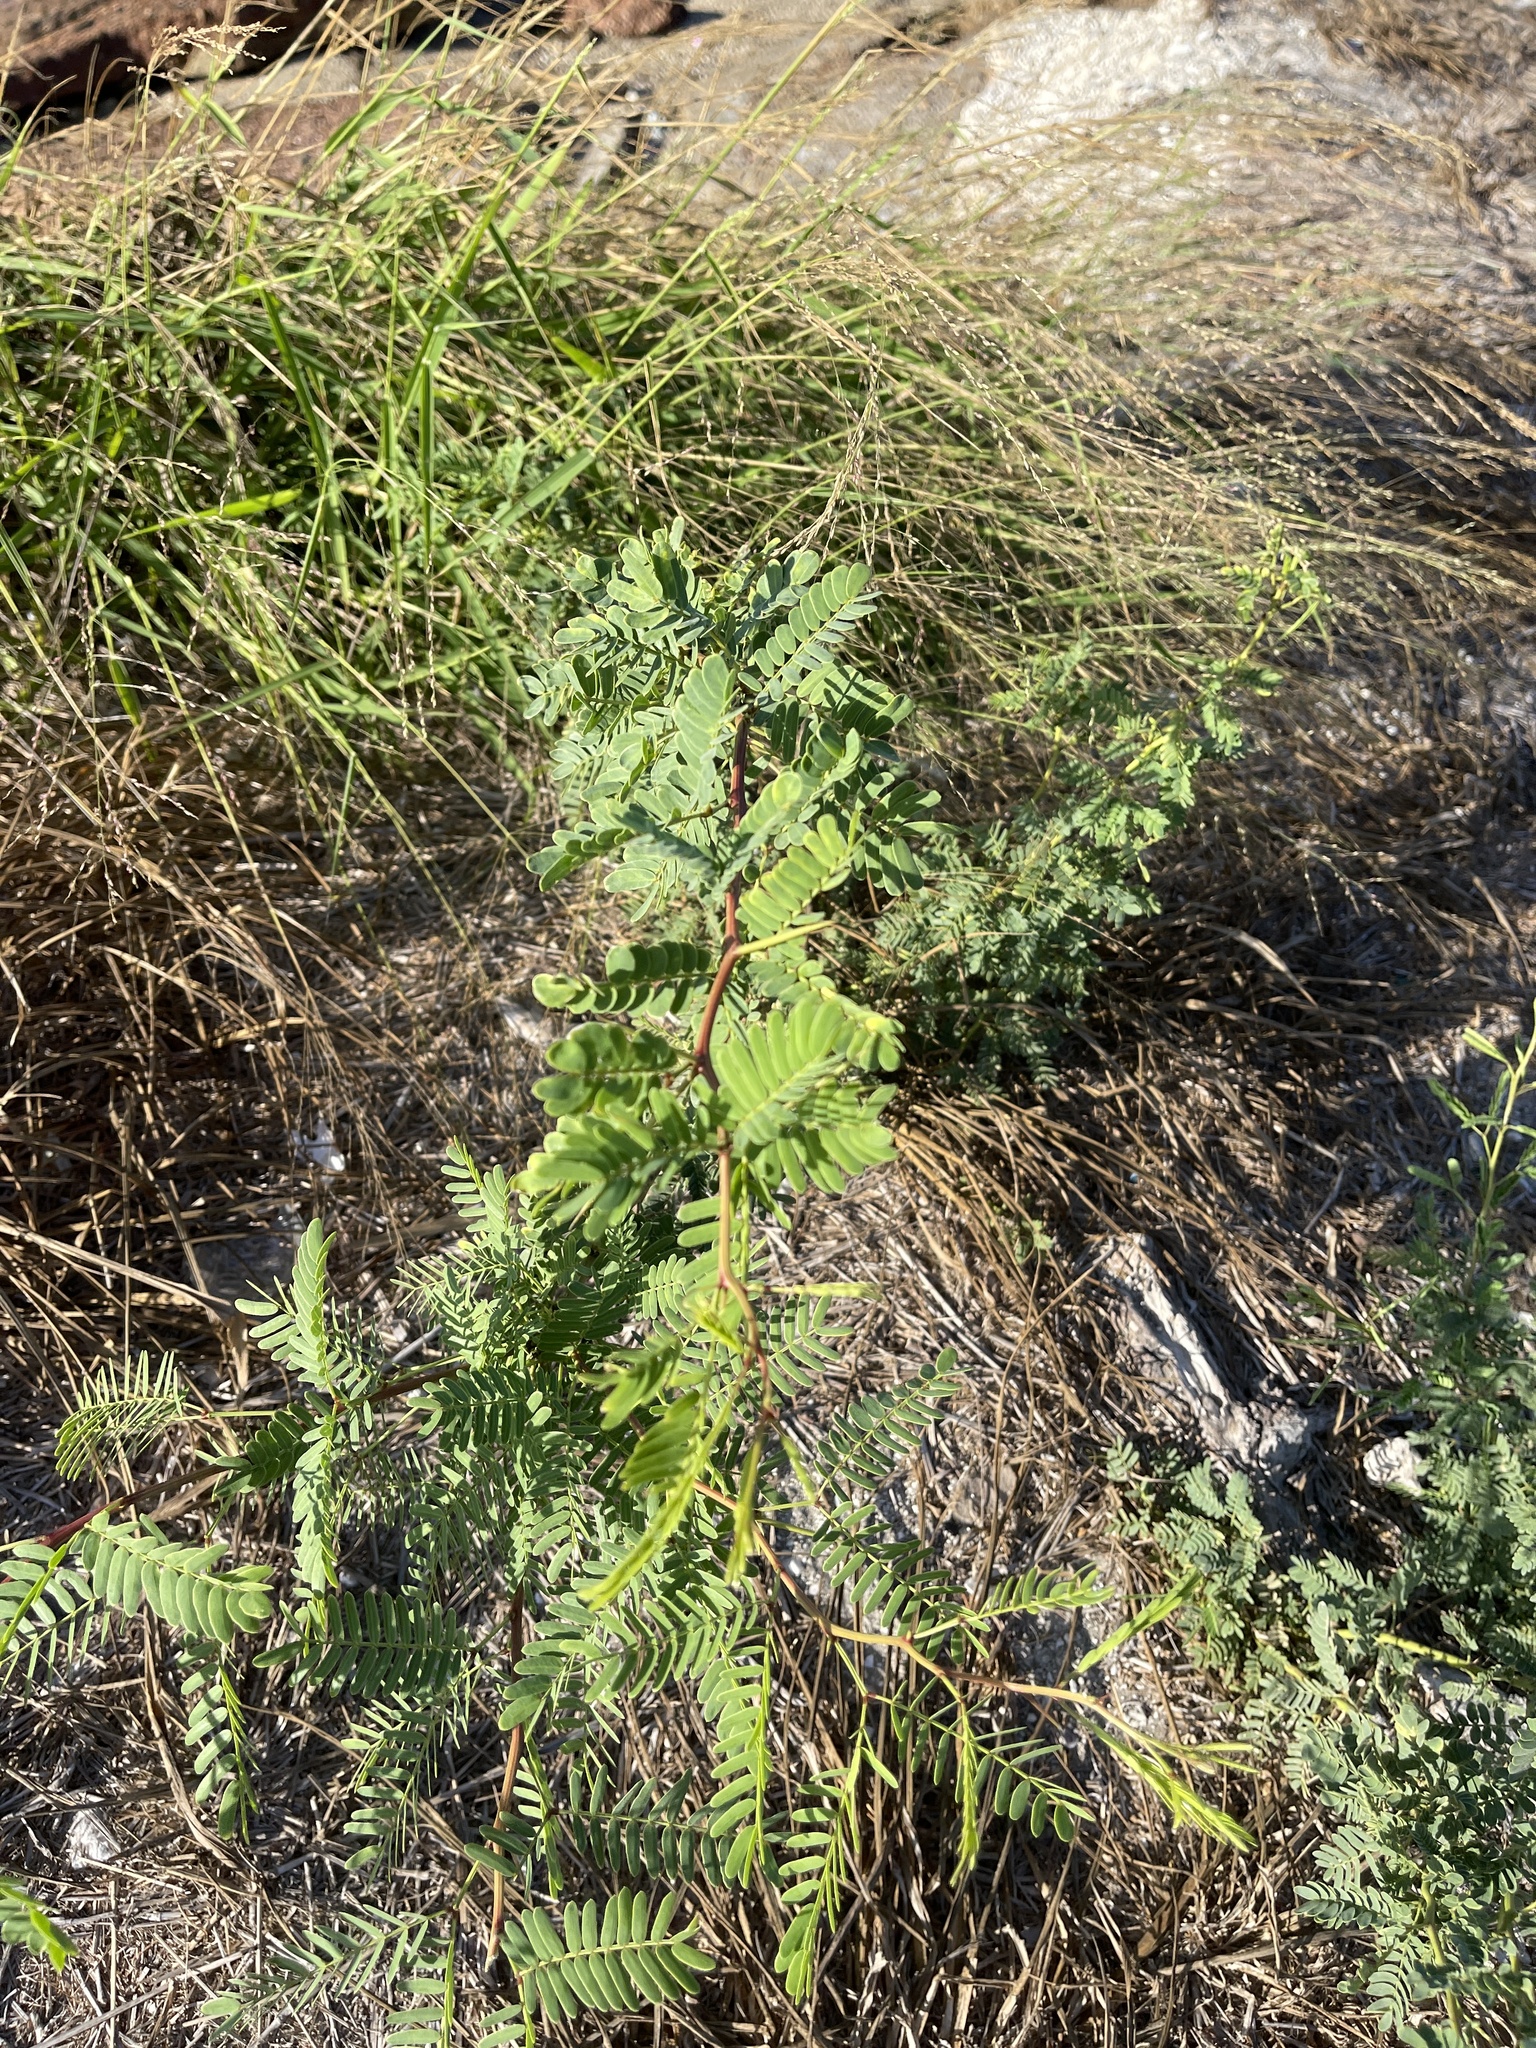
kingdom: Plantae
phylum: Tracheophyta
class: Magnoliopsida
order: Fabales
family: Fabaceae
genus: Prosopis
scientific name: Prosopis glandulosa
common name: Honey mesquite
